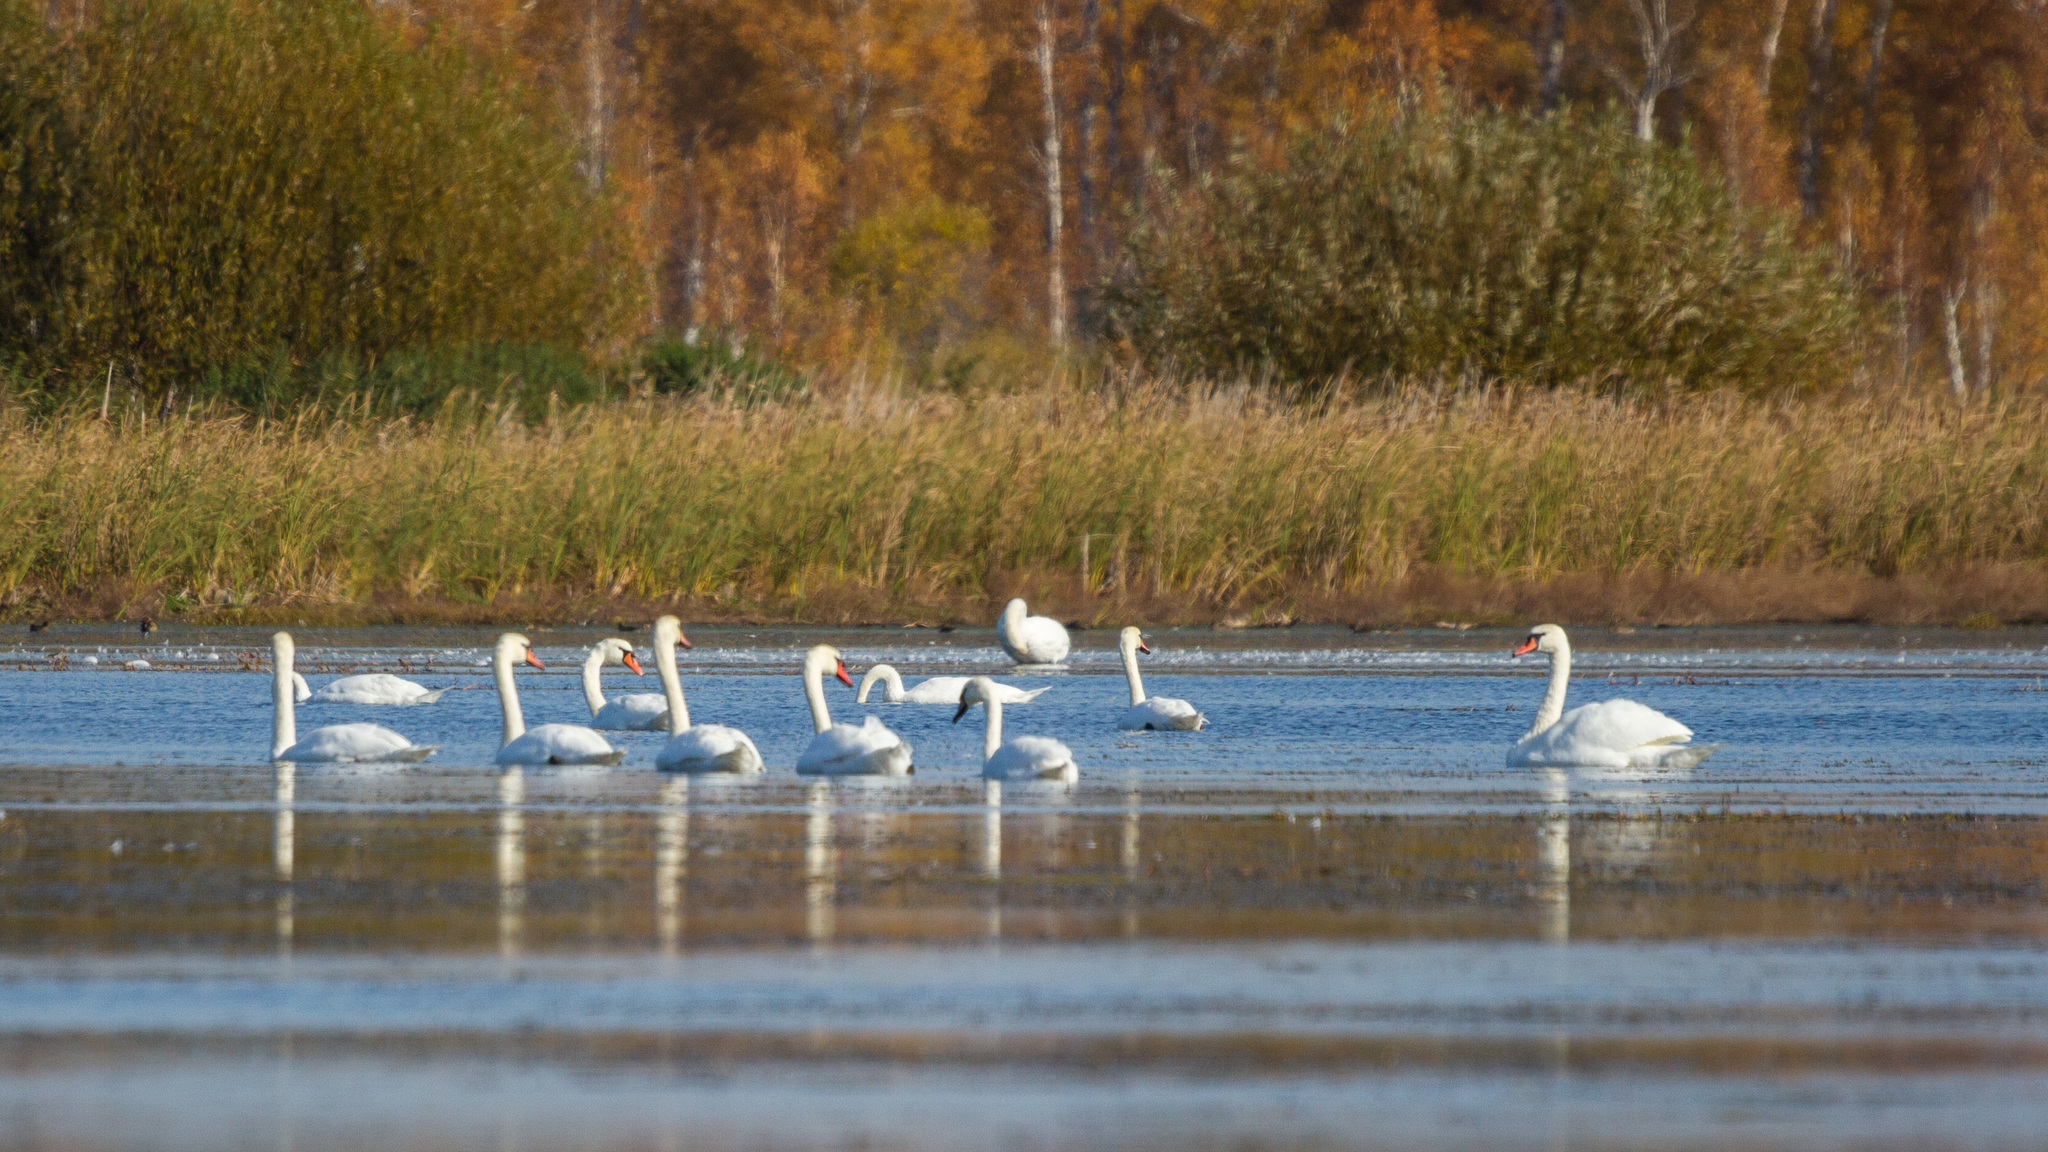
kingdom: Animalia
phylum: Chordata
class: Aves
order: Anseriformes
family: Anatidae
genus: Cygnus
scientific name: Cygnus olor
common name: Mute swan
